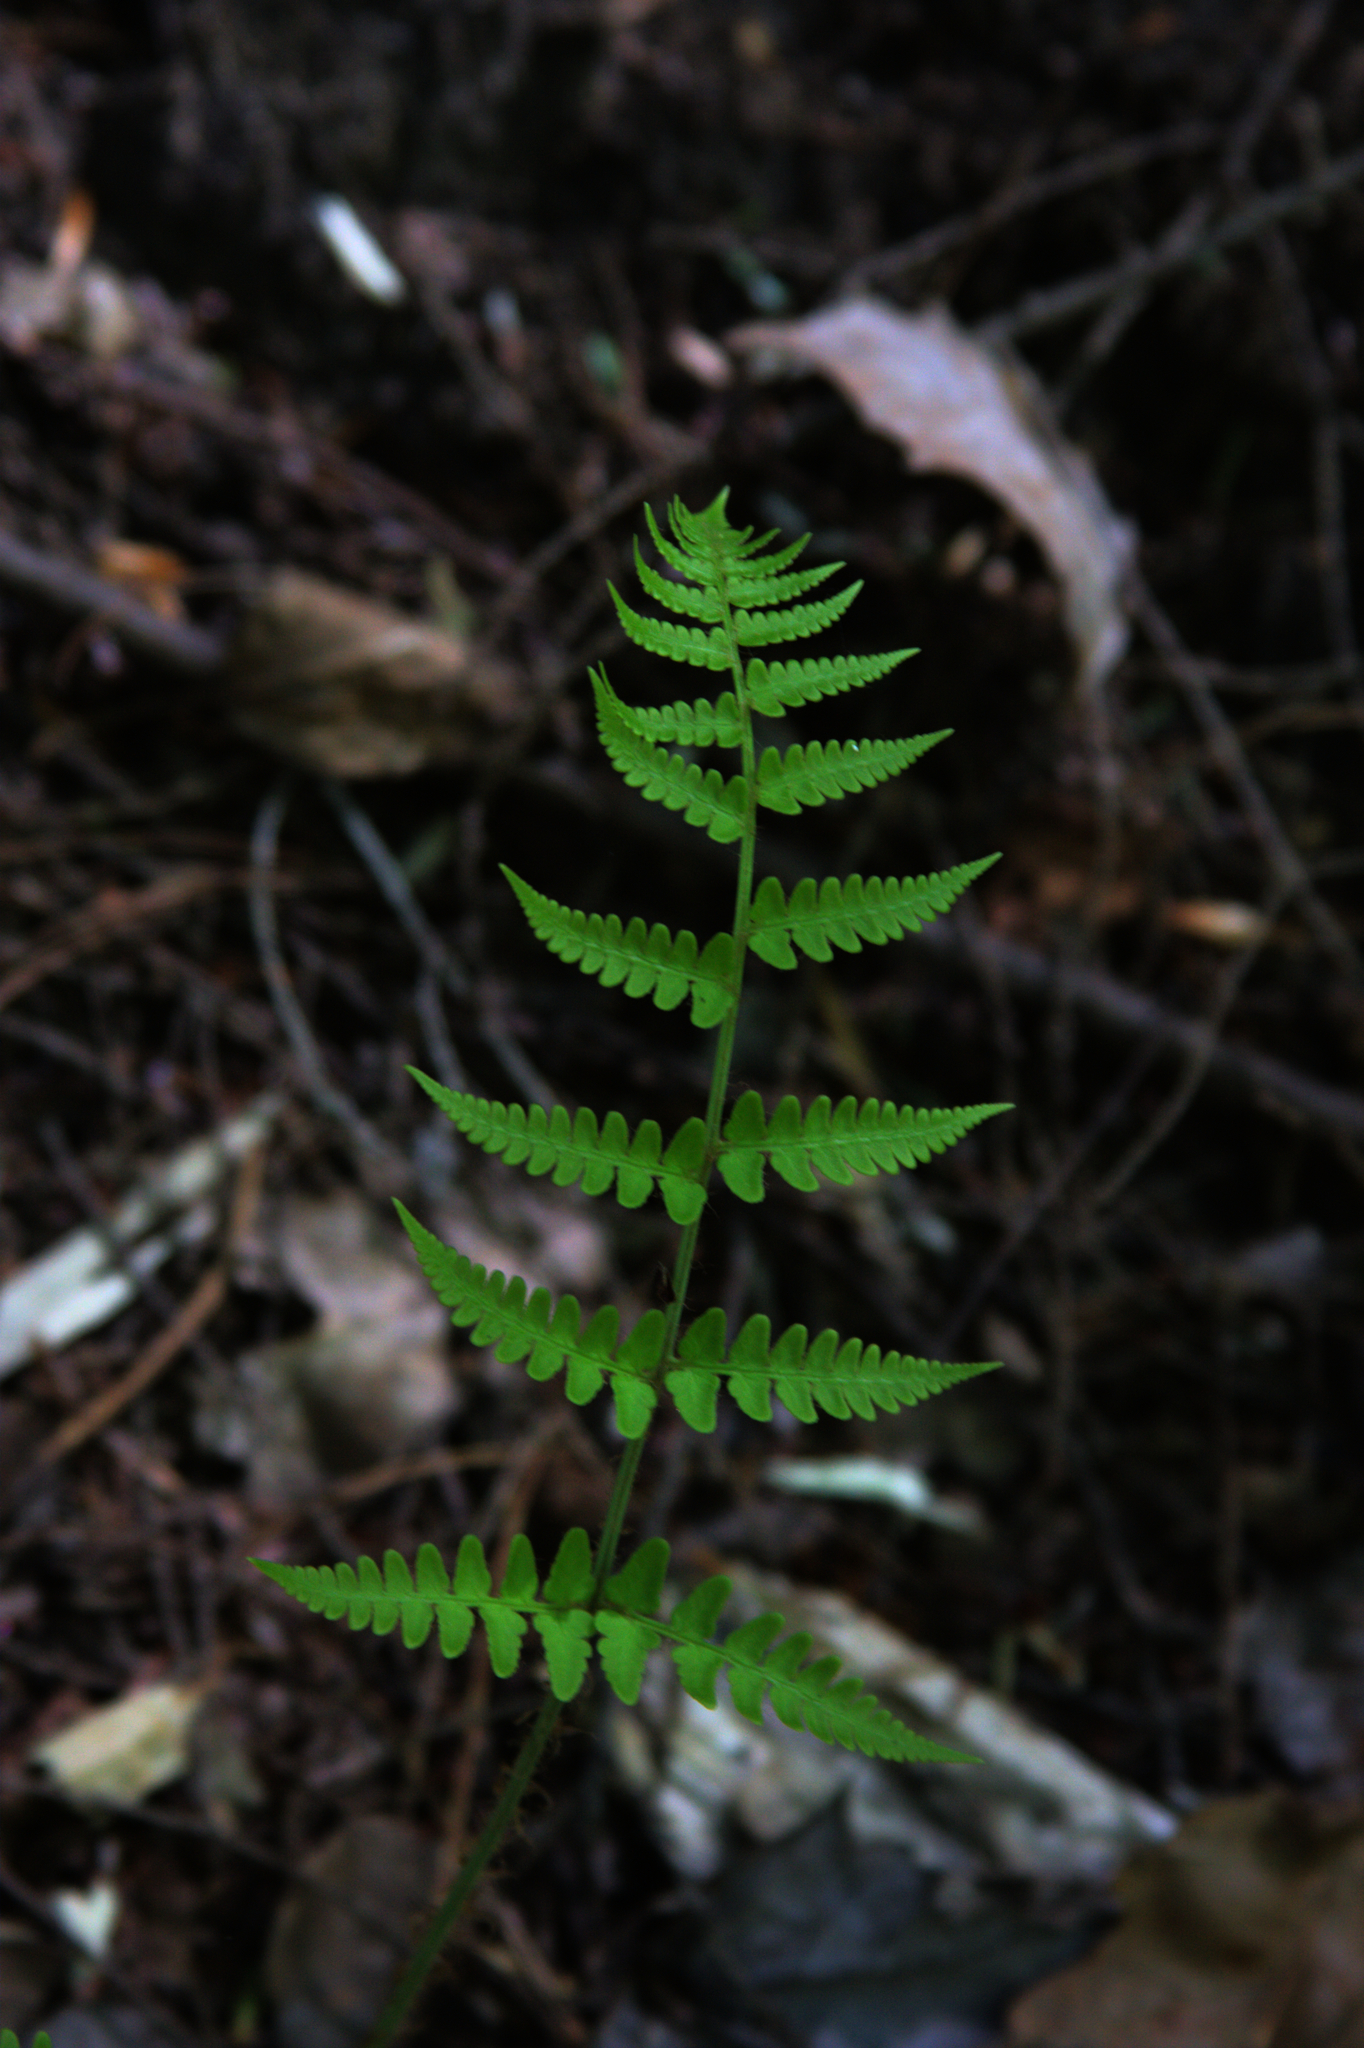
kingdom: Plantae
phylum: Tracheophyta
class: Polypodiopsida
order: Polypodiales
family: Dryopteridaceae
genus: Dryopteris
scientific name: Dryopteris marginalis
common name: Marginal wood fern
